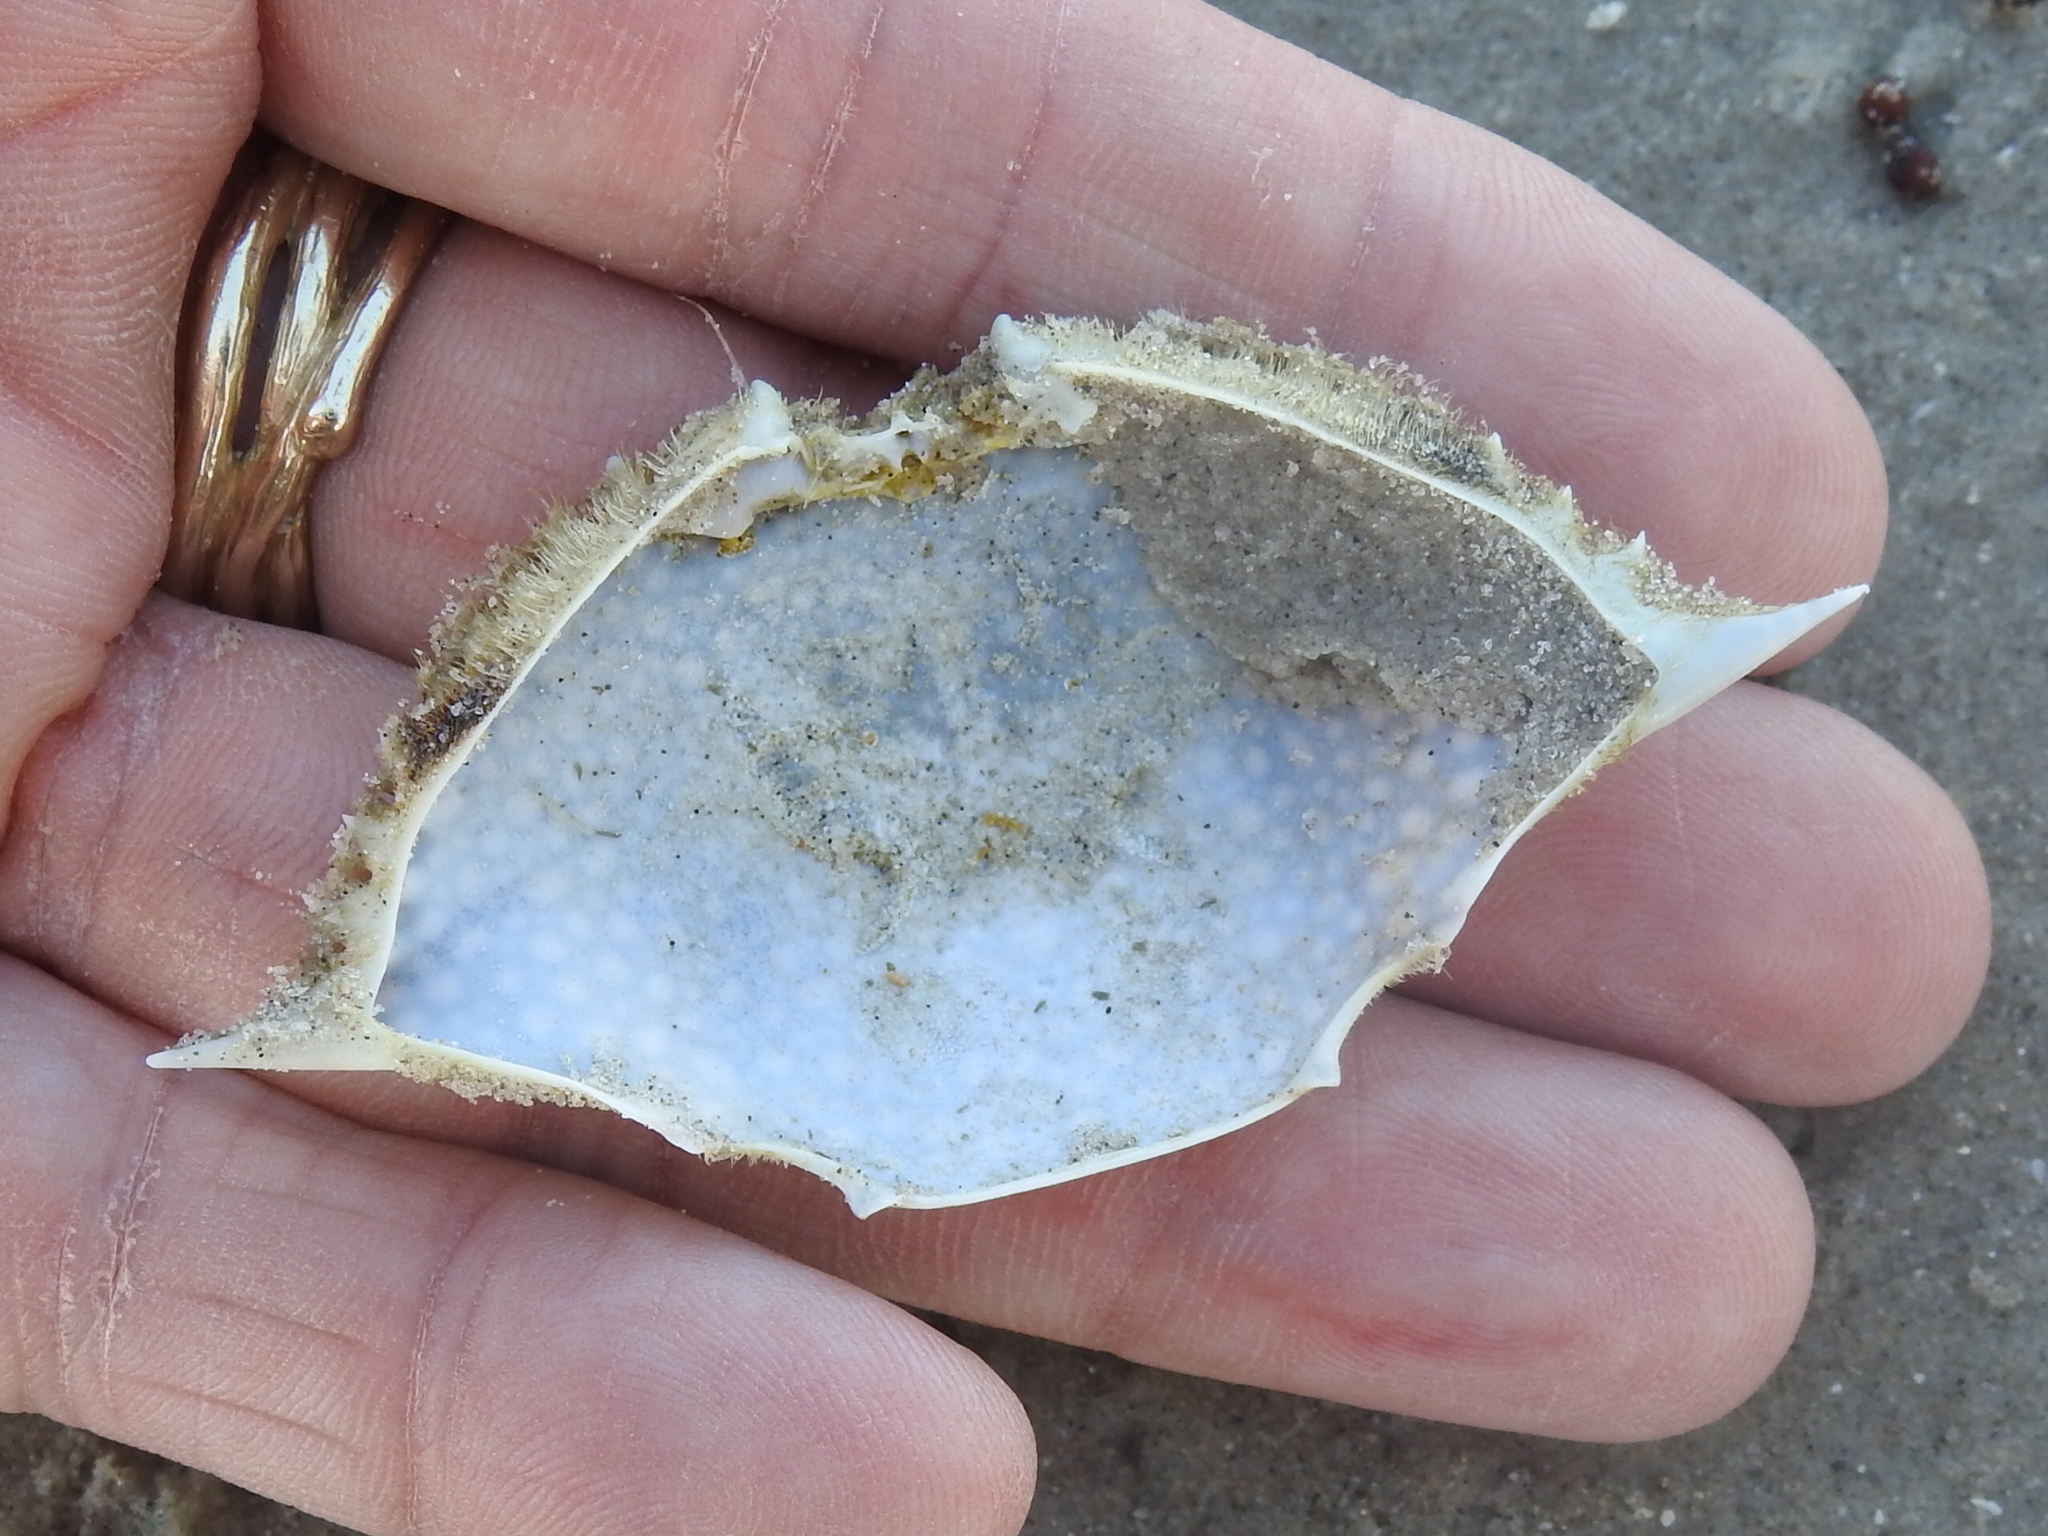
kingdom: Animalia
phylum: Arthropoda
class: Malacostraca
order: Decapoda
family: Portunidae
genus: Arenaeus
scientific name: Arenaeus cribrarius
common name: Speckled crab
